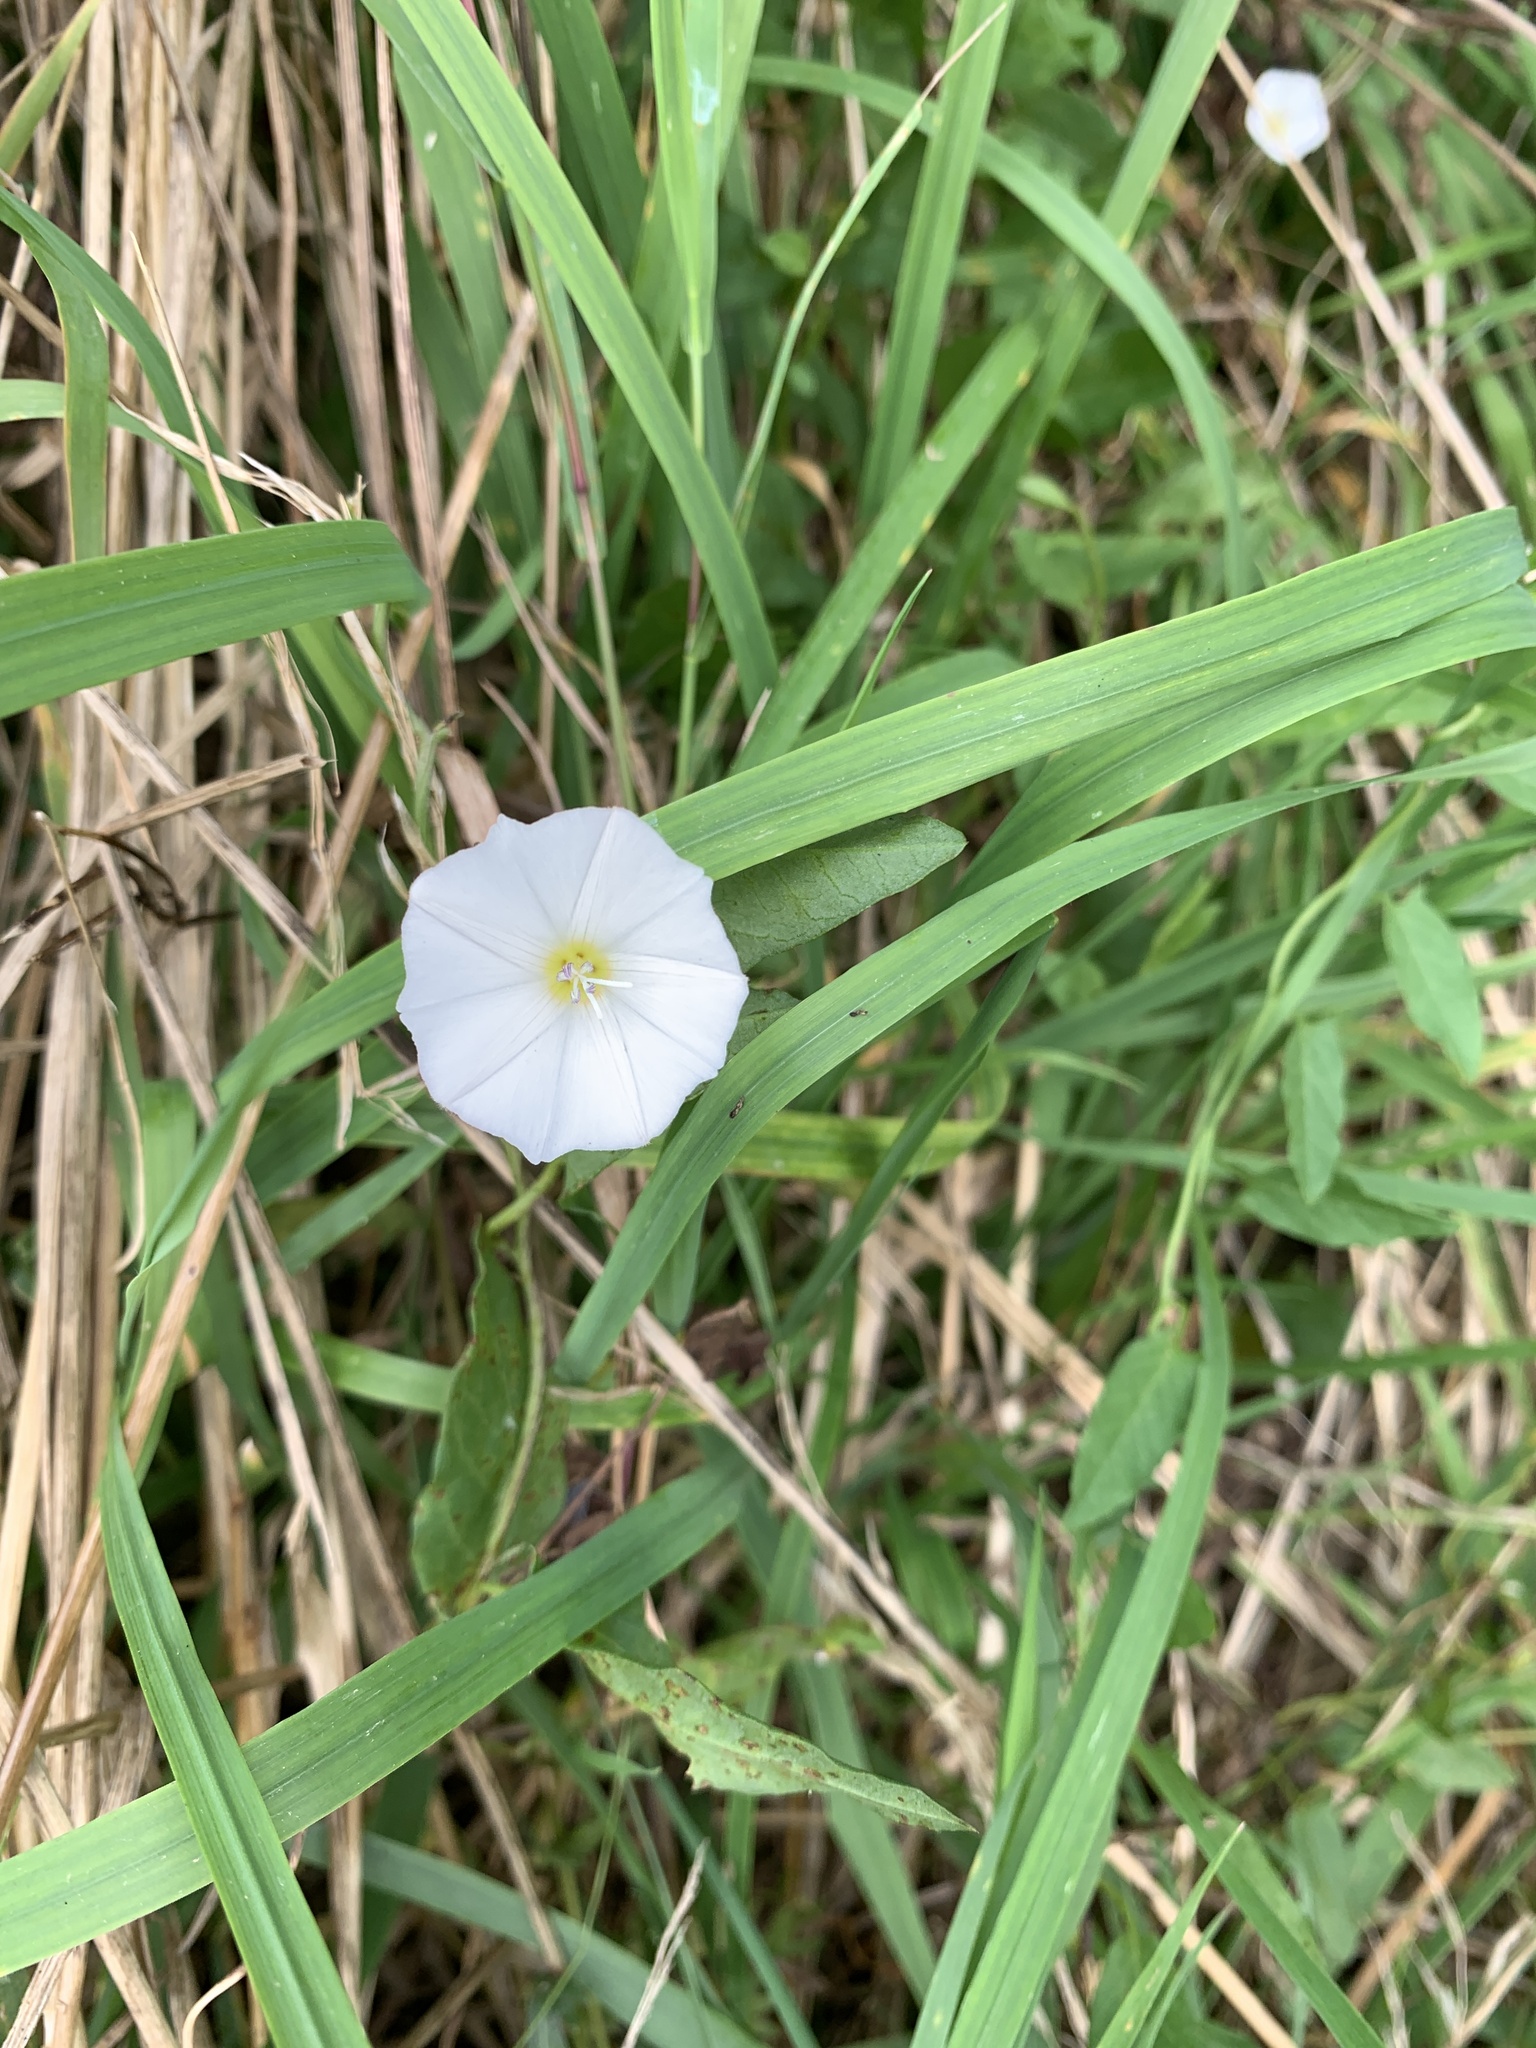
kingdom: Plantae
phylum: Tracheophyta
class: Magnoliopsida
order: Solanales
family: Convolvulaceae
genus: Convolvulus
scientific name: Convolvulus arvensis
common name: Field bindweed
